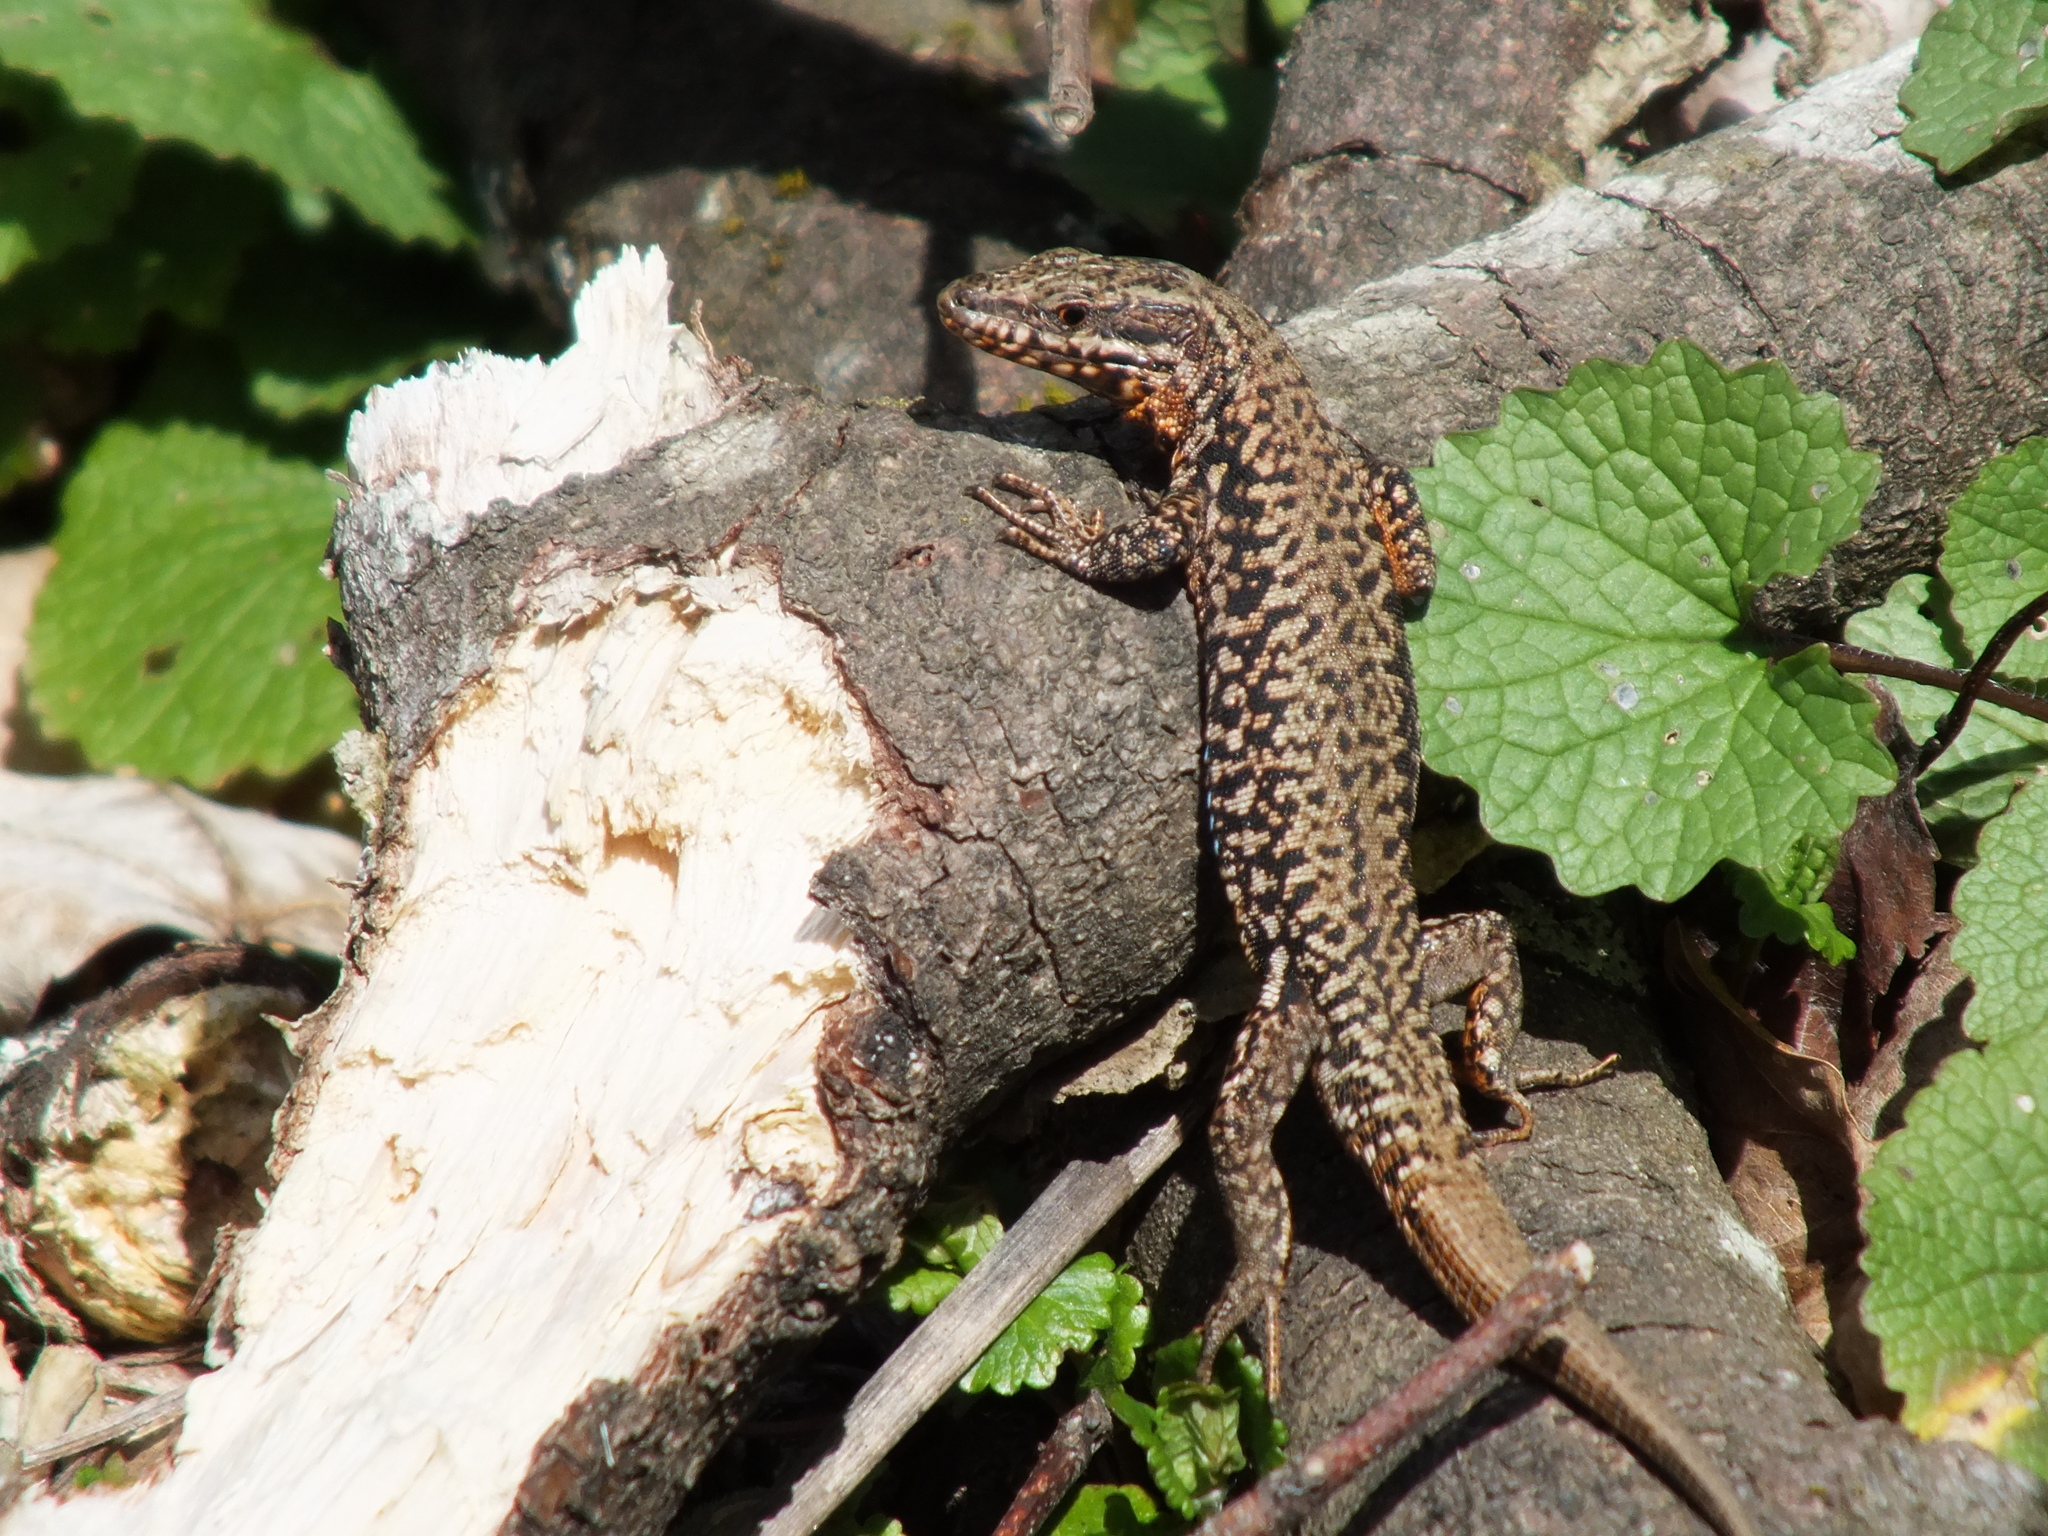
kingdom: Animalia
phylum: Chordata
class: Squamata
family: Lacertidae
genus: Podarcis
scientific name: Podarcis muralis
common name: Common wall lizard
